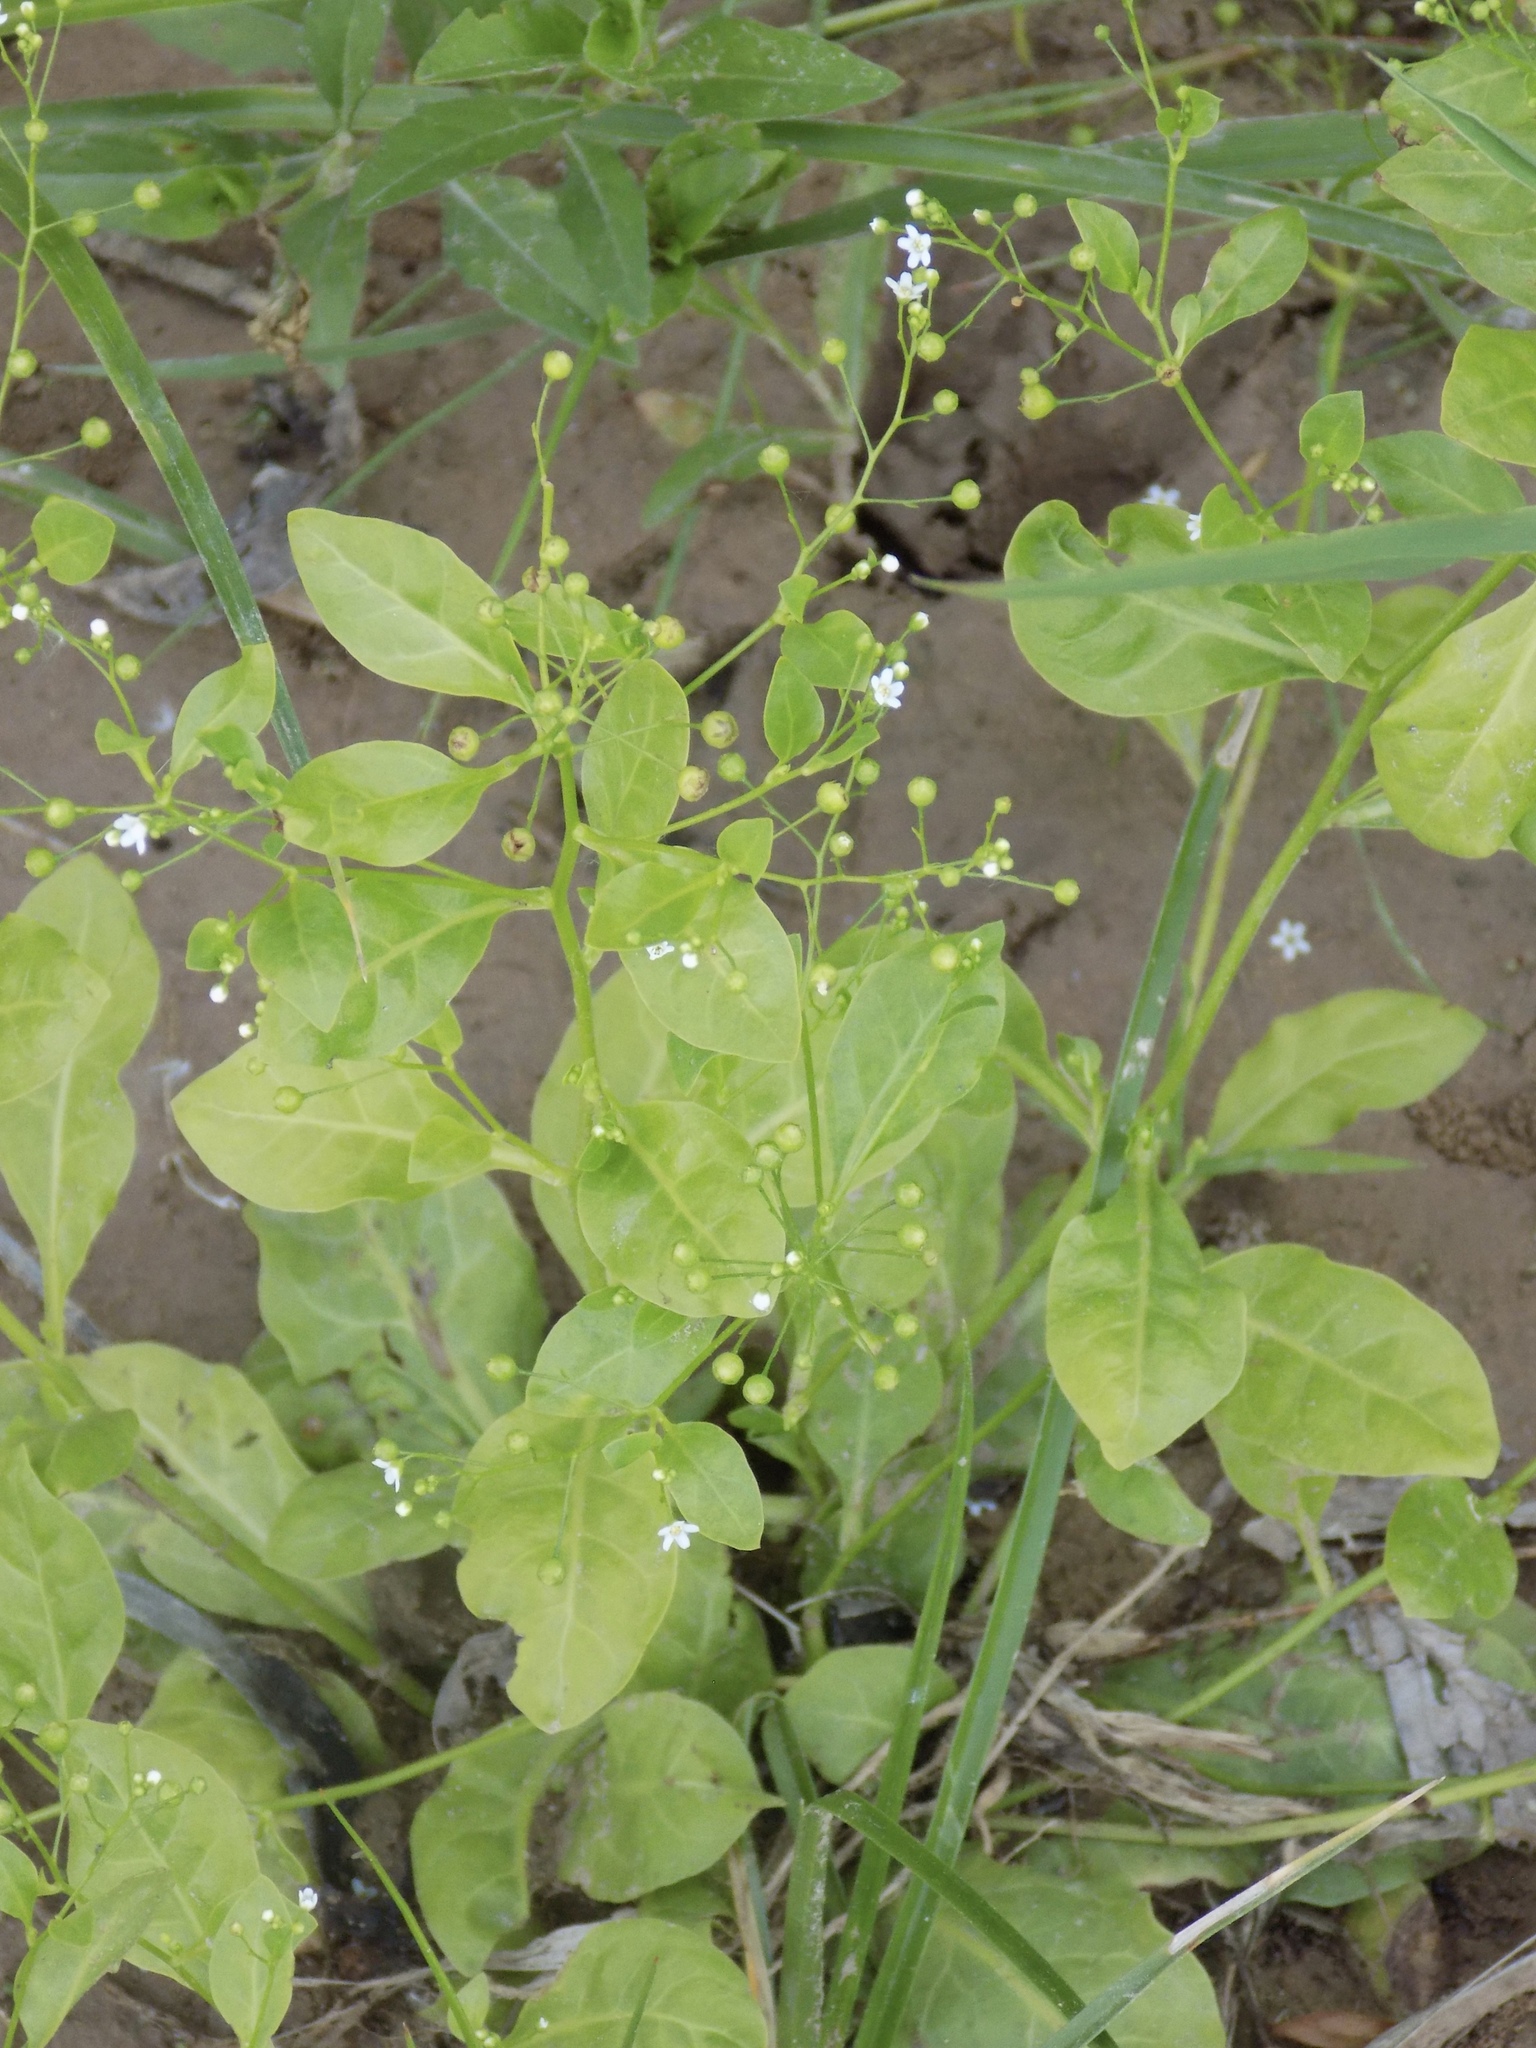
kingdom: Plantae
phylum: Tracheophyta
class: Magnoliopsida
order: Ericales
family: Primulaceae
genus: Samolus
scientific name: Samolus parviflorus
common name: False water pimpernel
